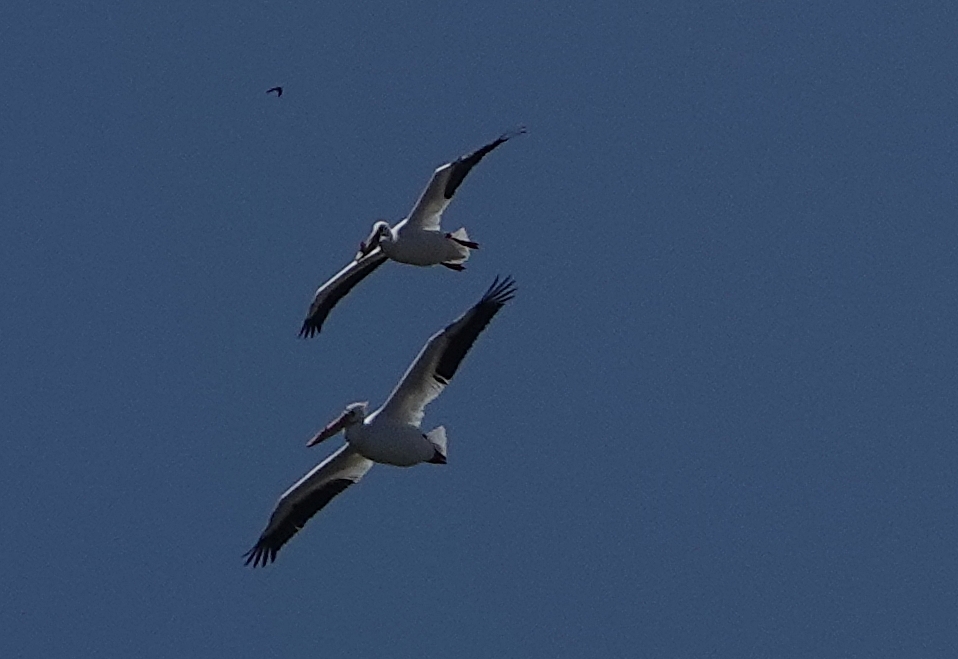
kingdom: Animalia
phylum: Chordata
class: Aves
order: Pelecaniformes
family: Pelecanidae
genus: Pelecanus
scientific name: Pelecanus erythrorhynchos
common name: American white pelican
